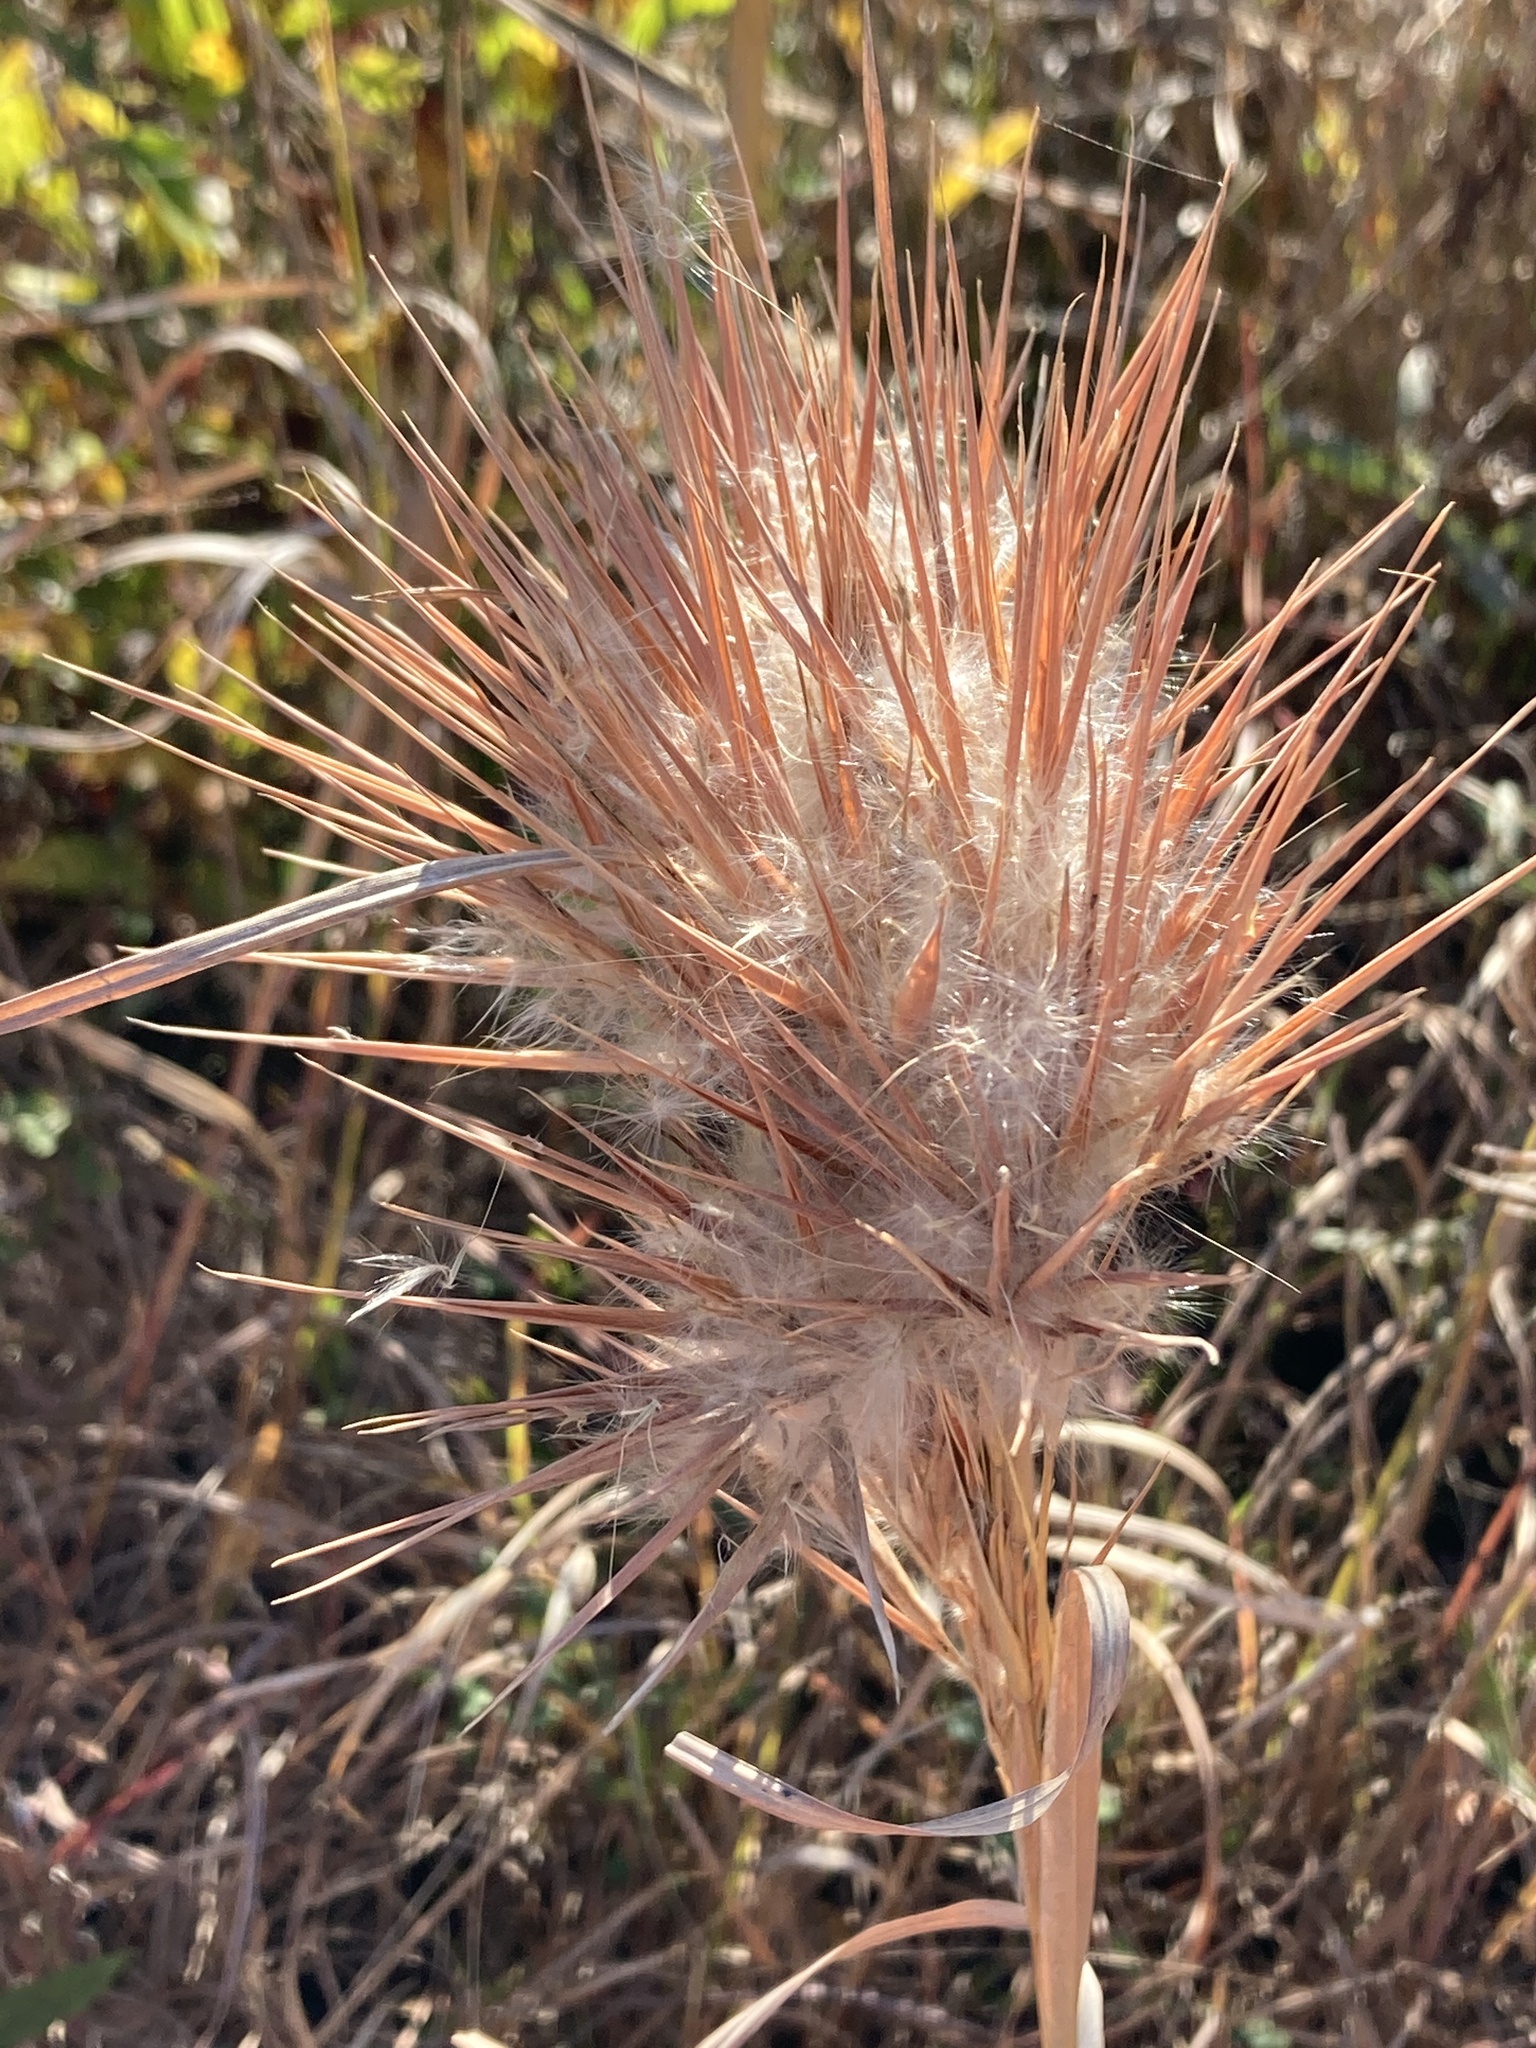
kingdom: Plantae
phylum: Tracheophyta
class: Liliopsida
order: Poales
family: Poaceae
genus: Andropogon
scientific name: Andropogon glomeratus
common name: Bushy beard grass
